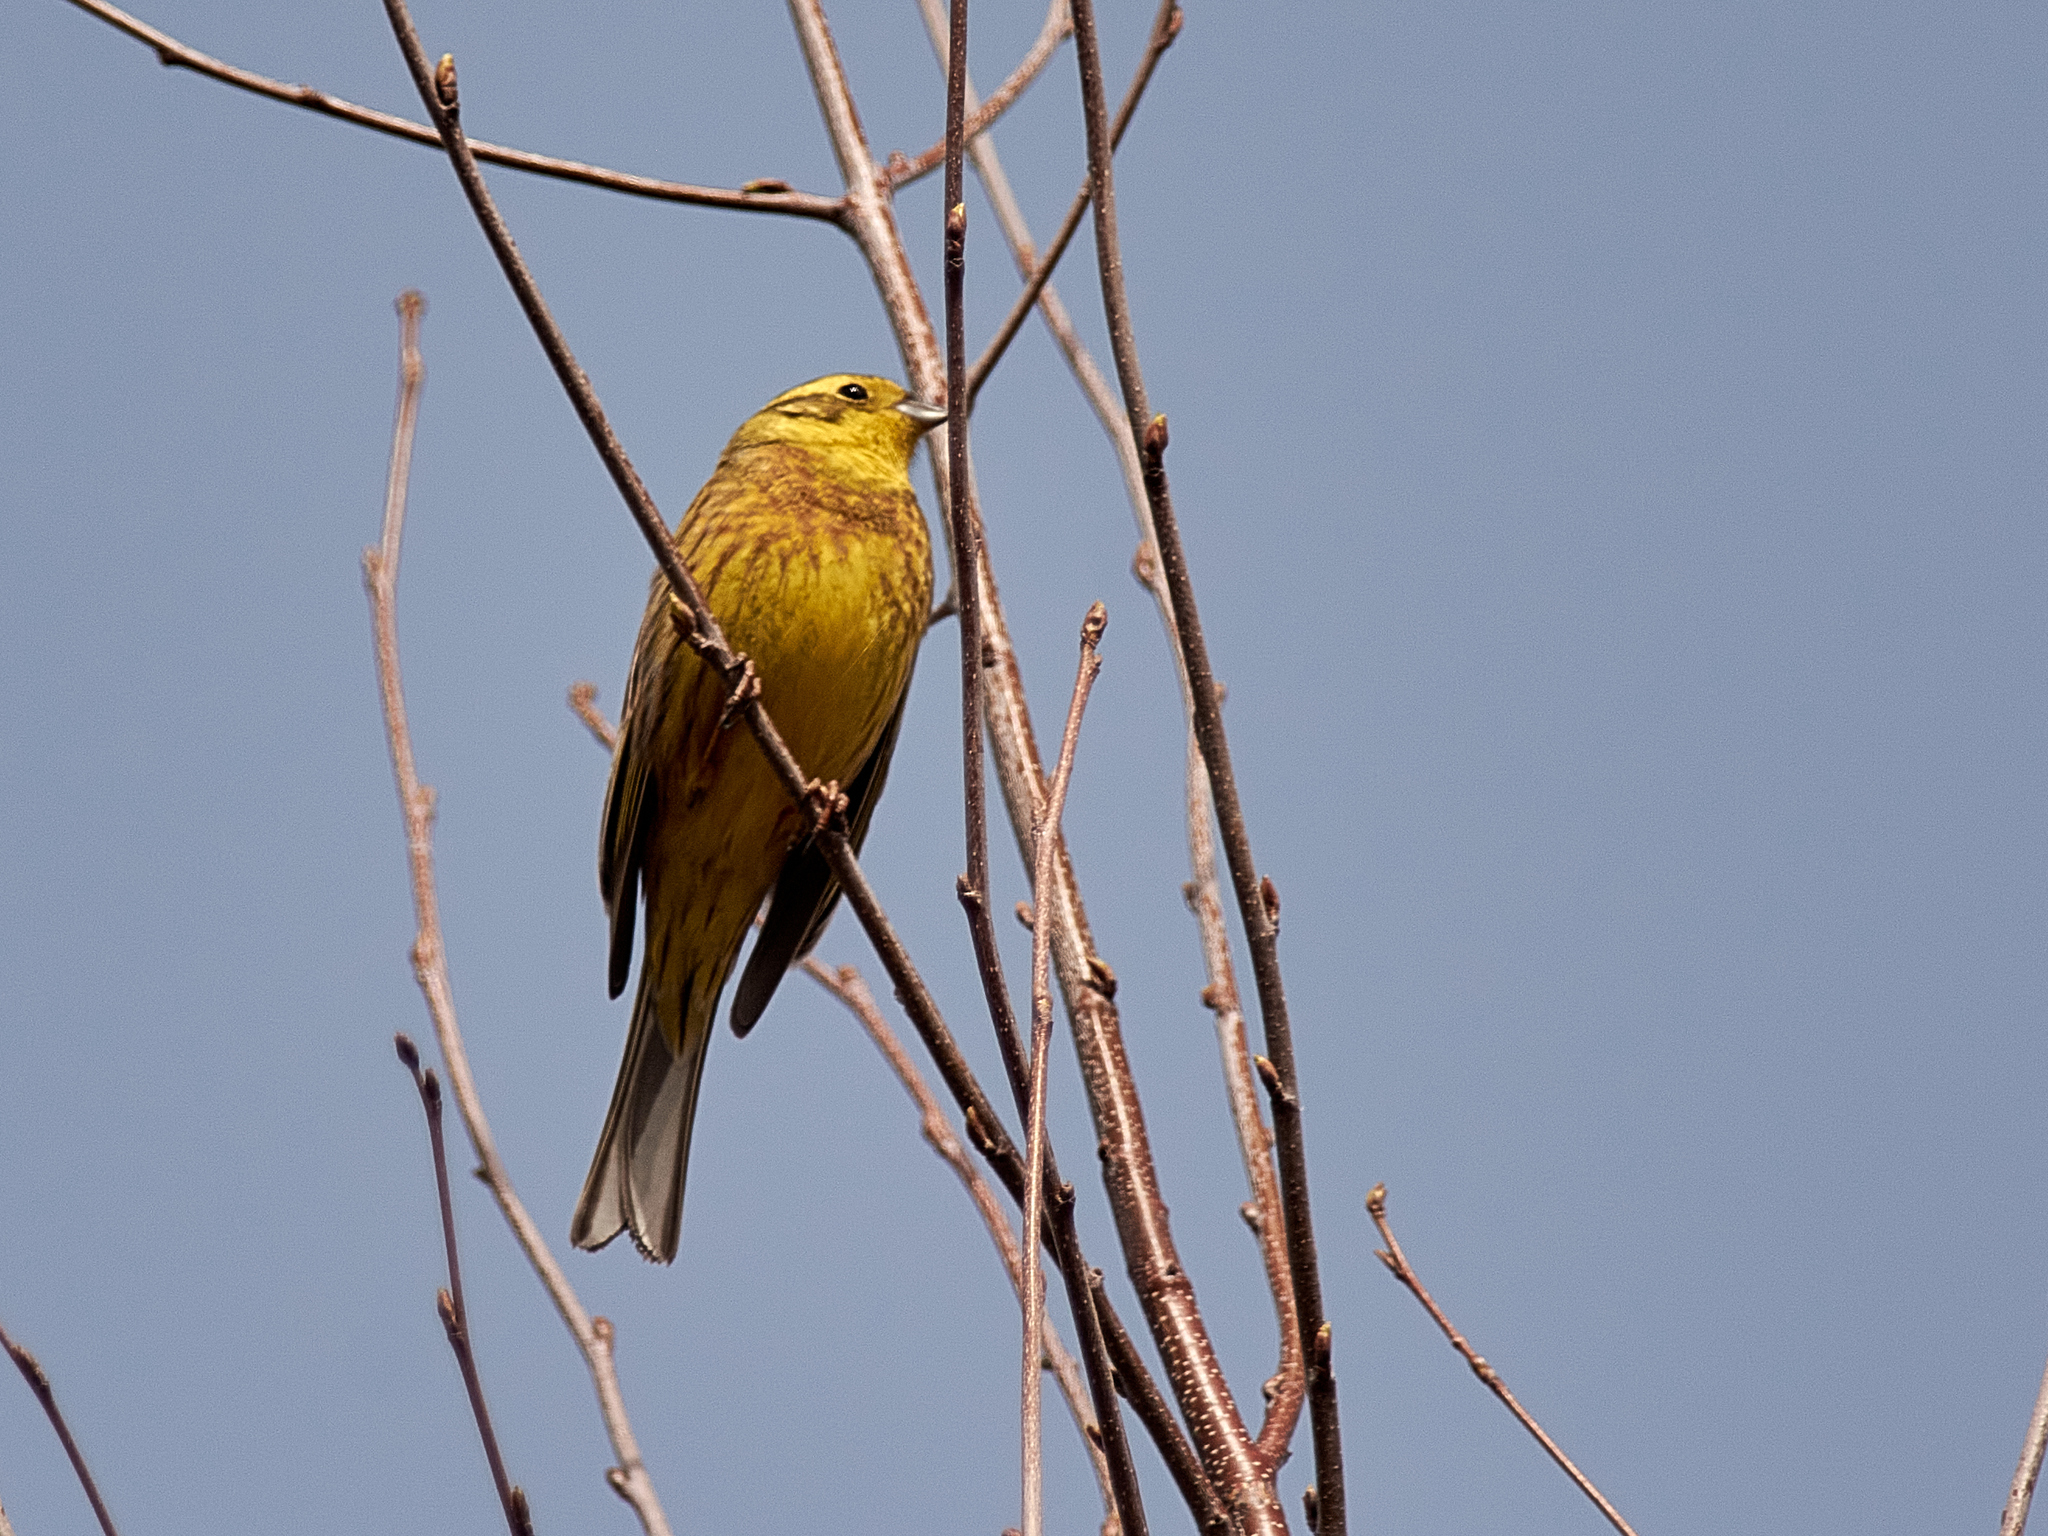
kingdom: Animalia
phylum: Chordata
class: Aves
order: Passeriformes
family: Emberizidae
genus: Emberiza
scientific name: Emberiza citrinella
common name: Yellowhammer
